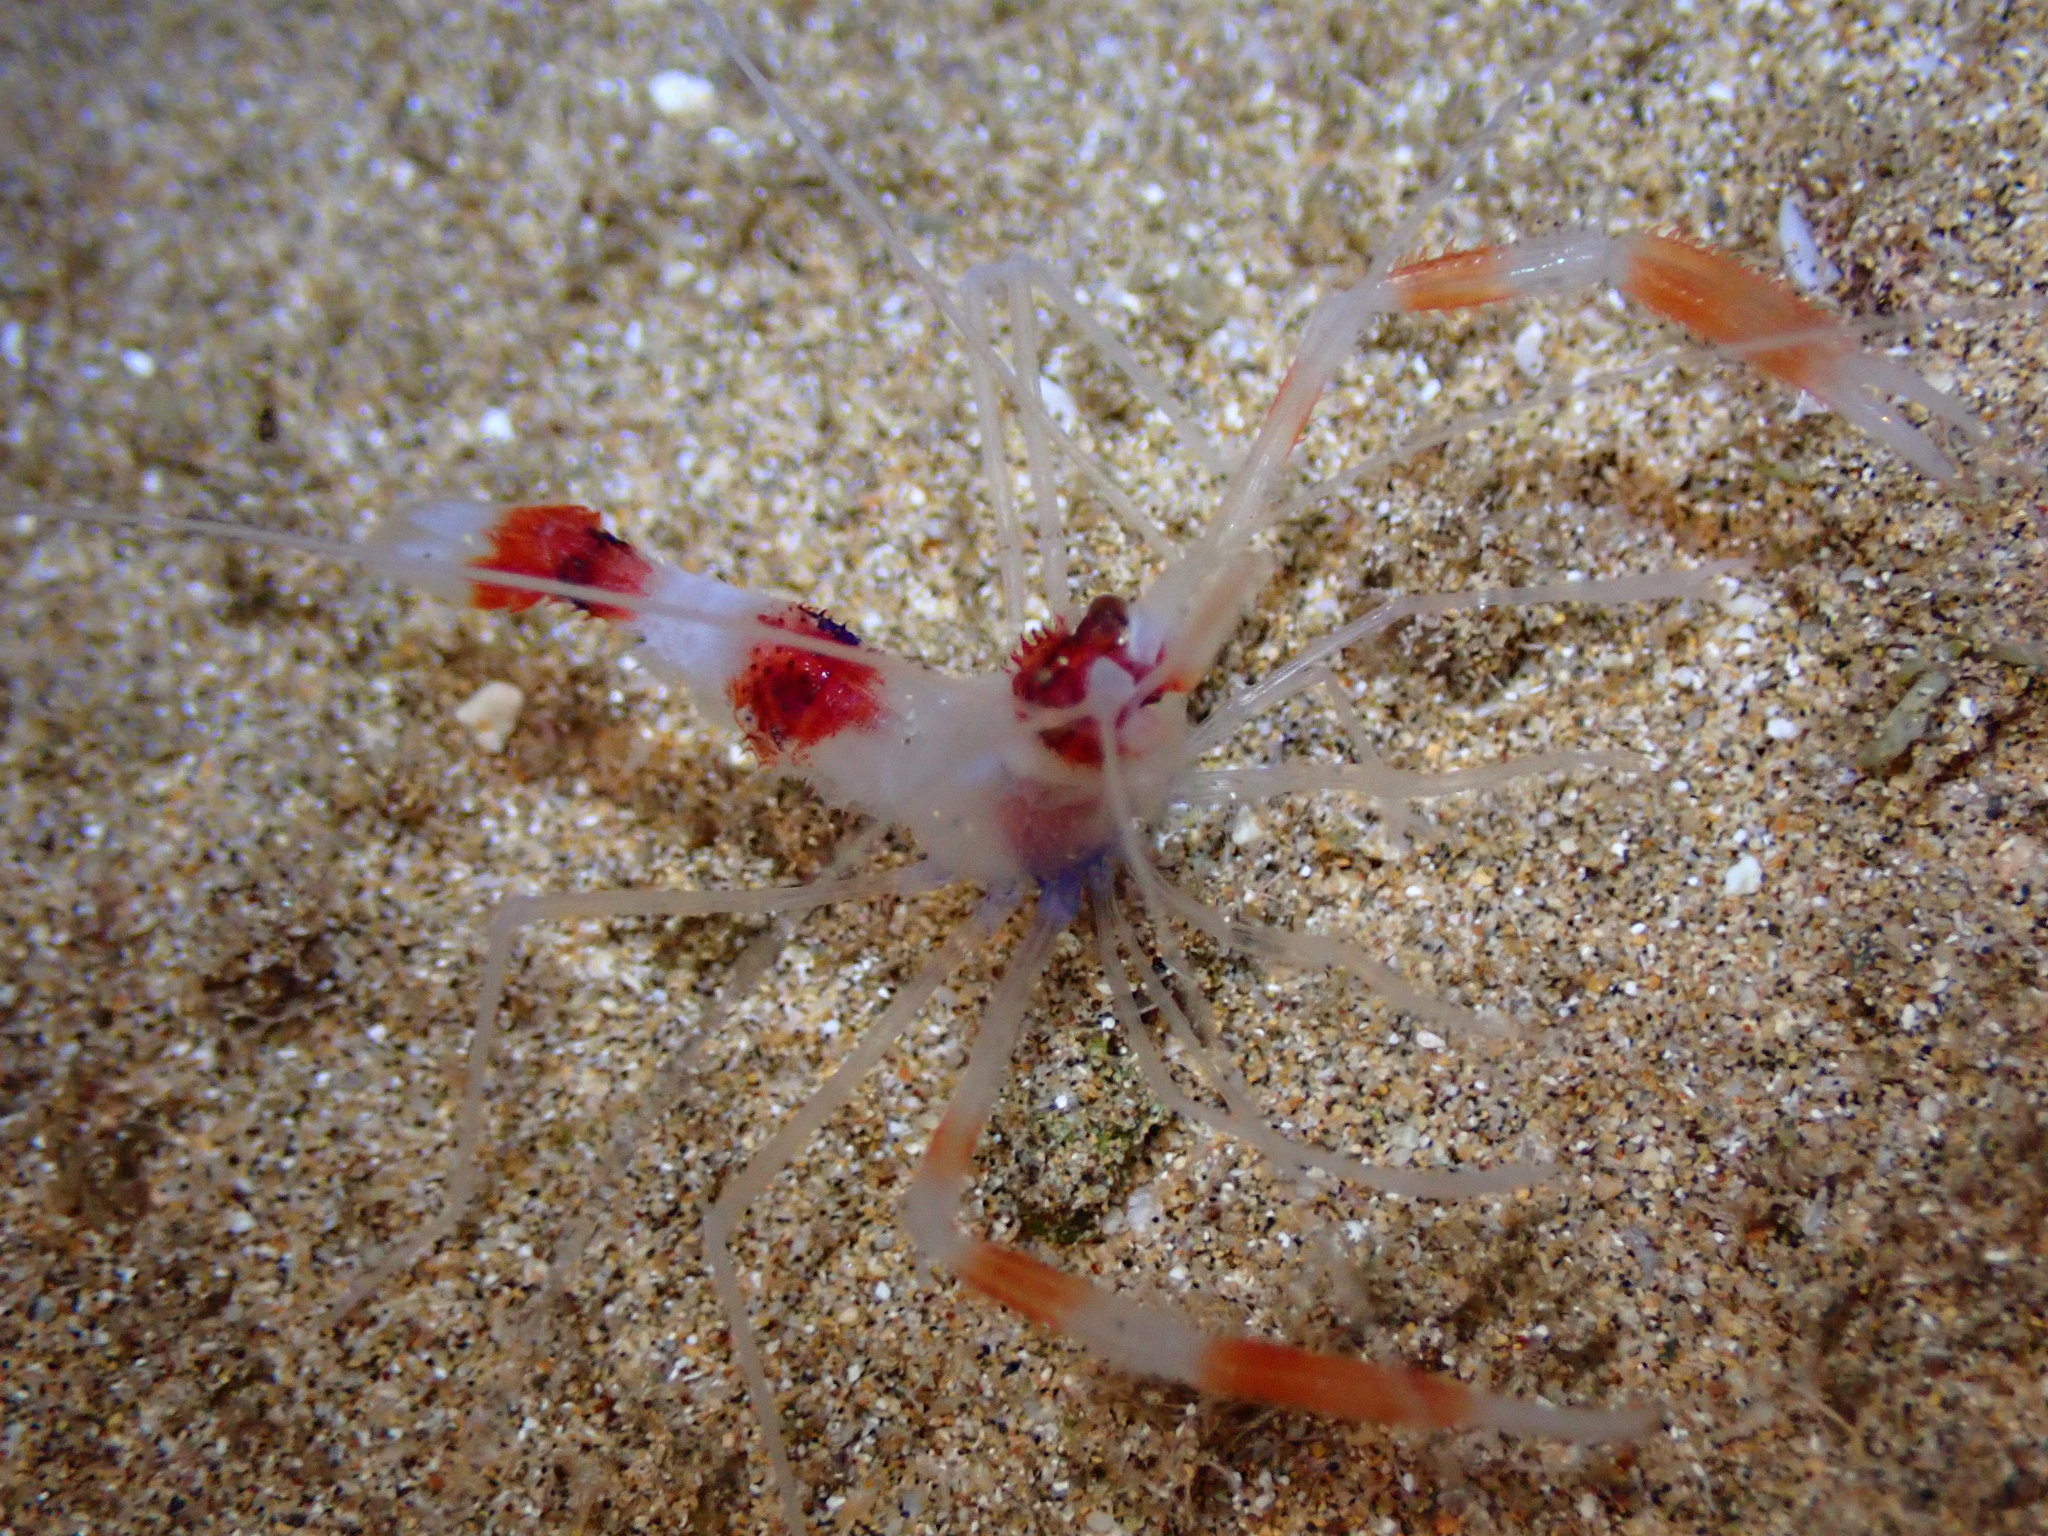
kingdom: Animalia
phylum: Arthropoda
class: Malacostraca
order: Decapoda
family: Stenopodidae
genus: Stenopus
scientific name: Stenopus hispidus
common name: Banded coral shrimp
